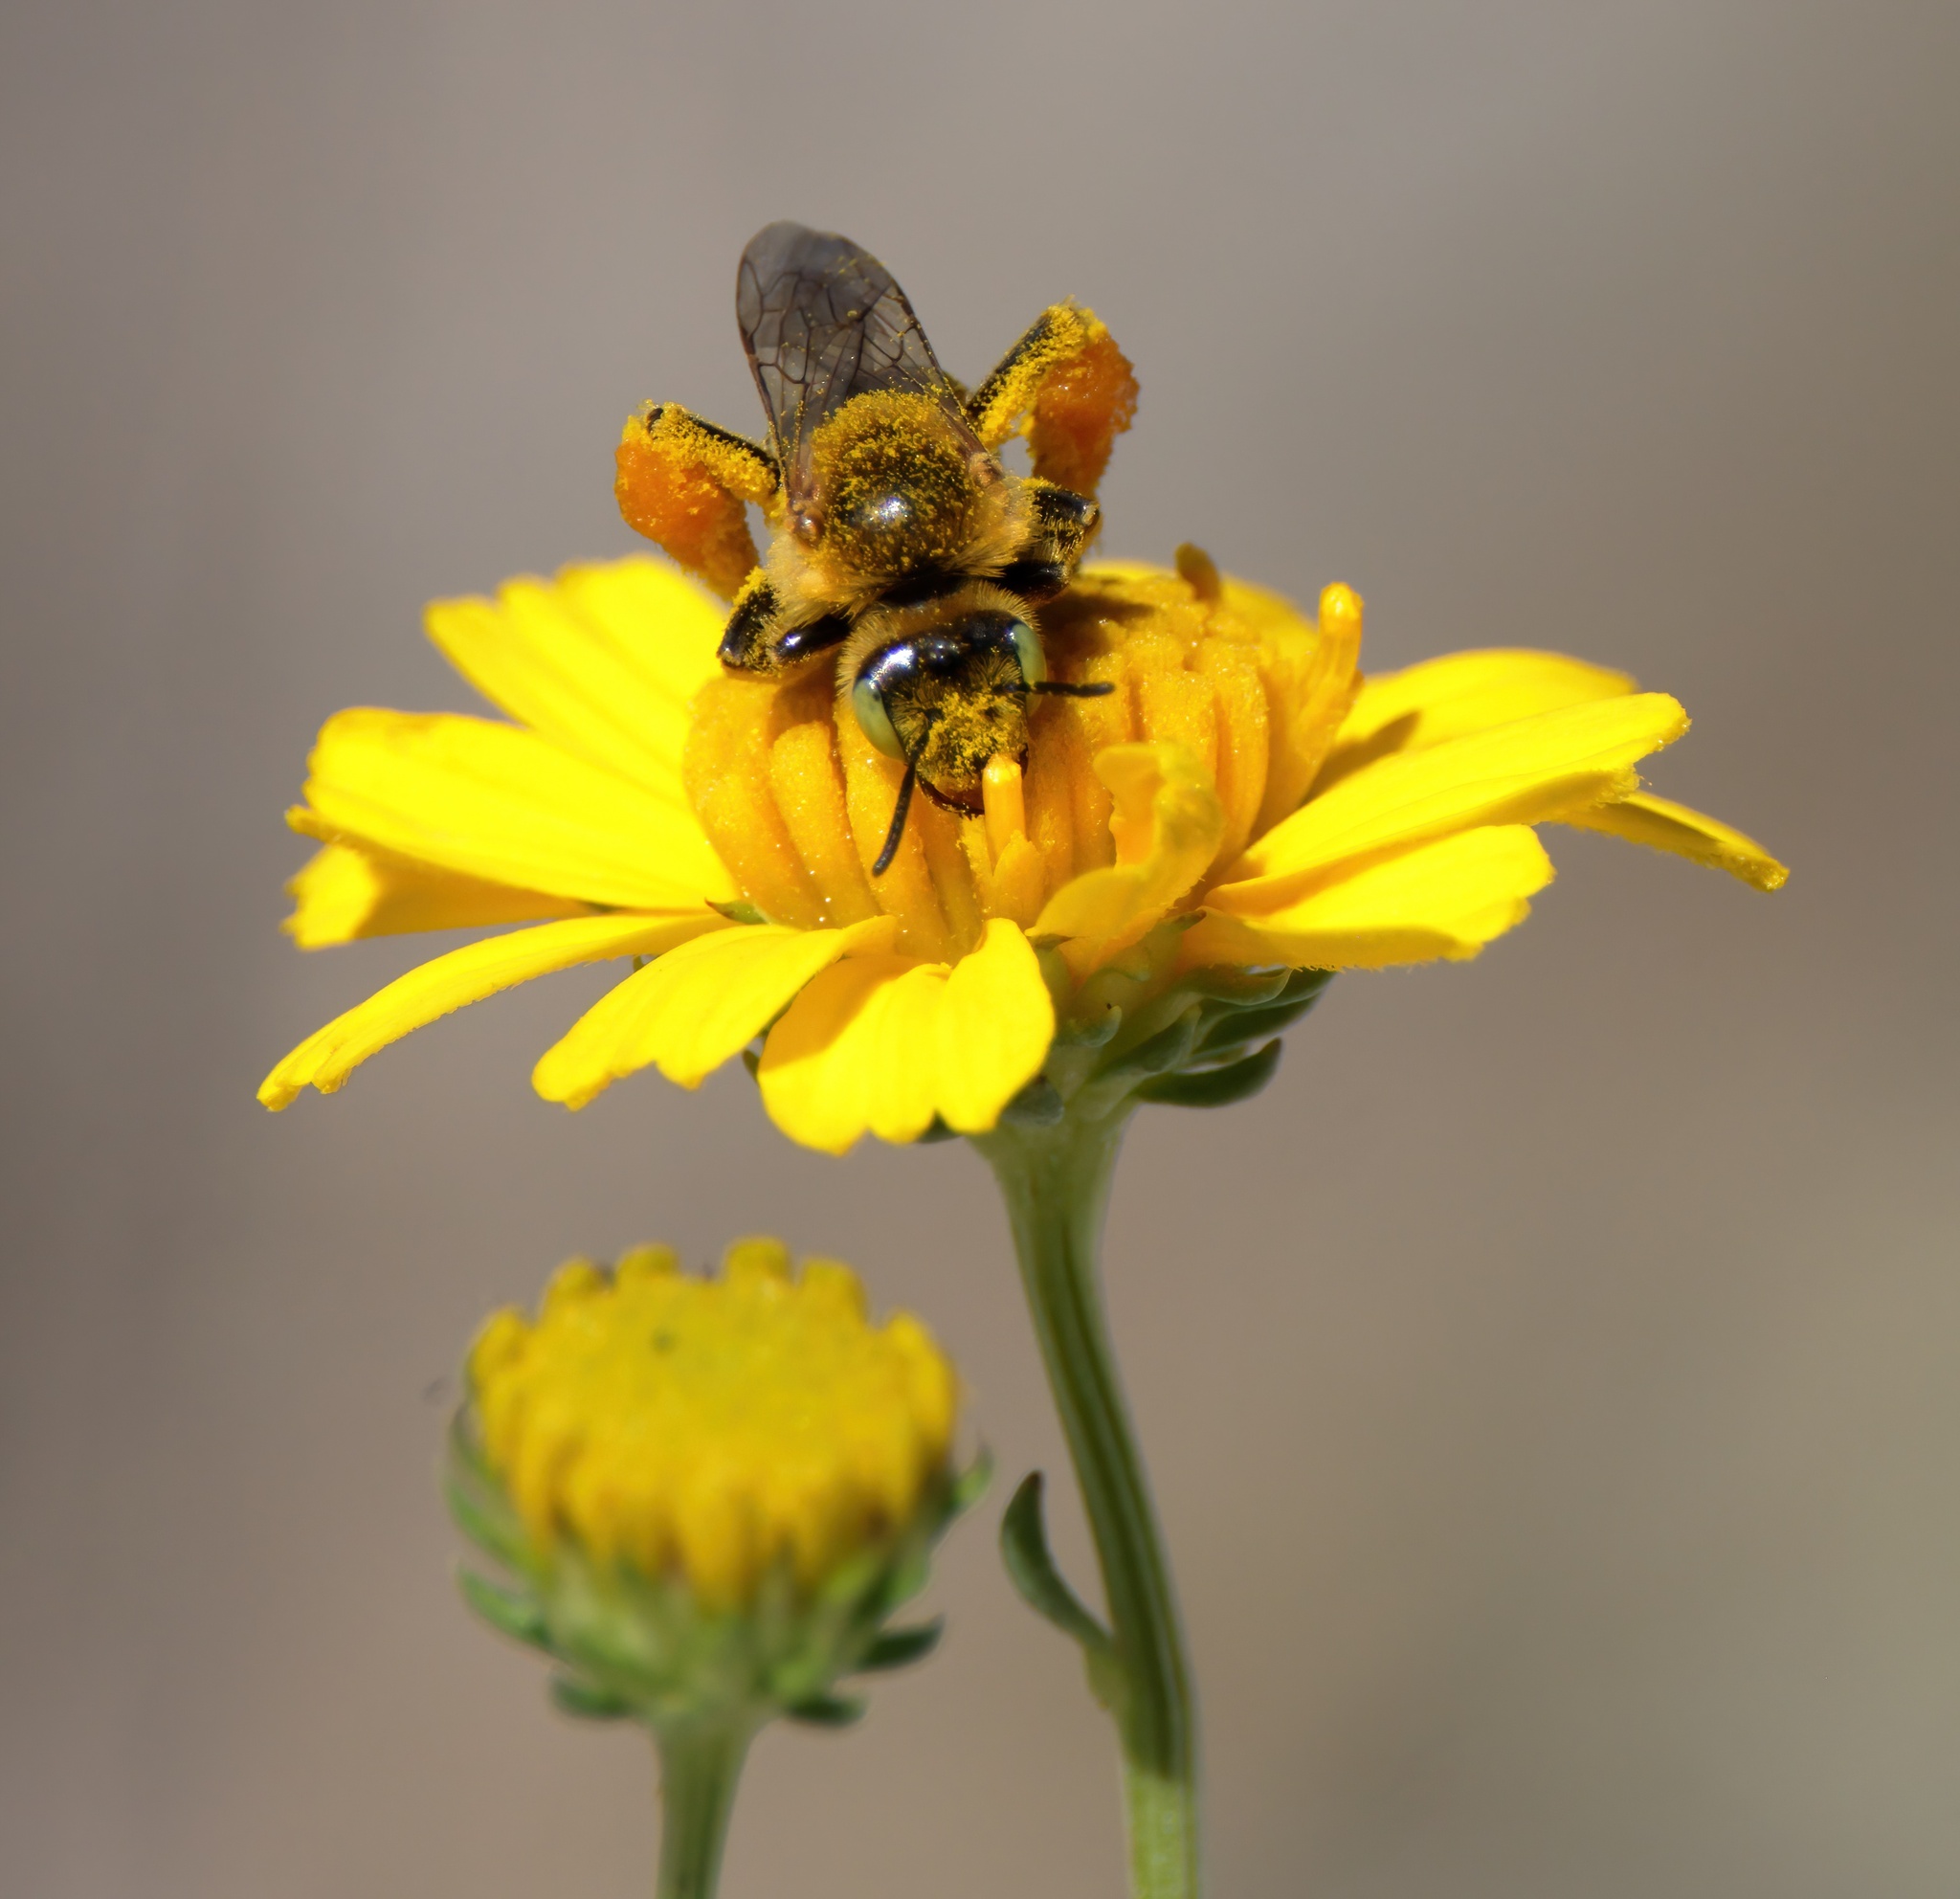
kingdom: Animalia
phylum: Arthropoda
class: Insecta
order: Hymenoptera
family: Melittidae
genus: Hesperapis
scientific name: Hesperapis oraria
